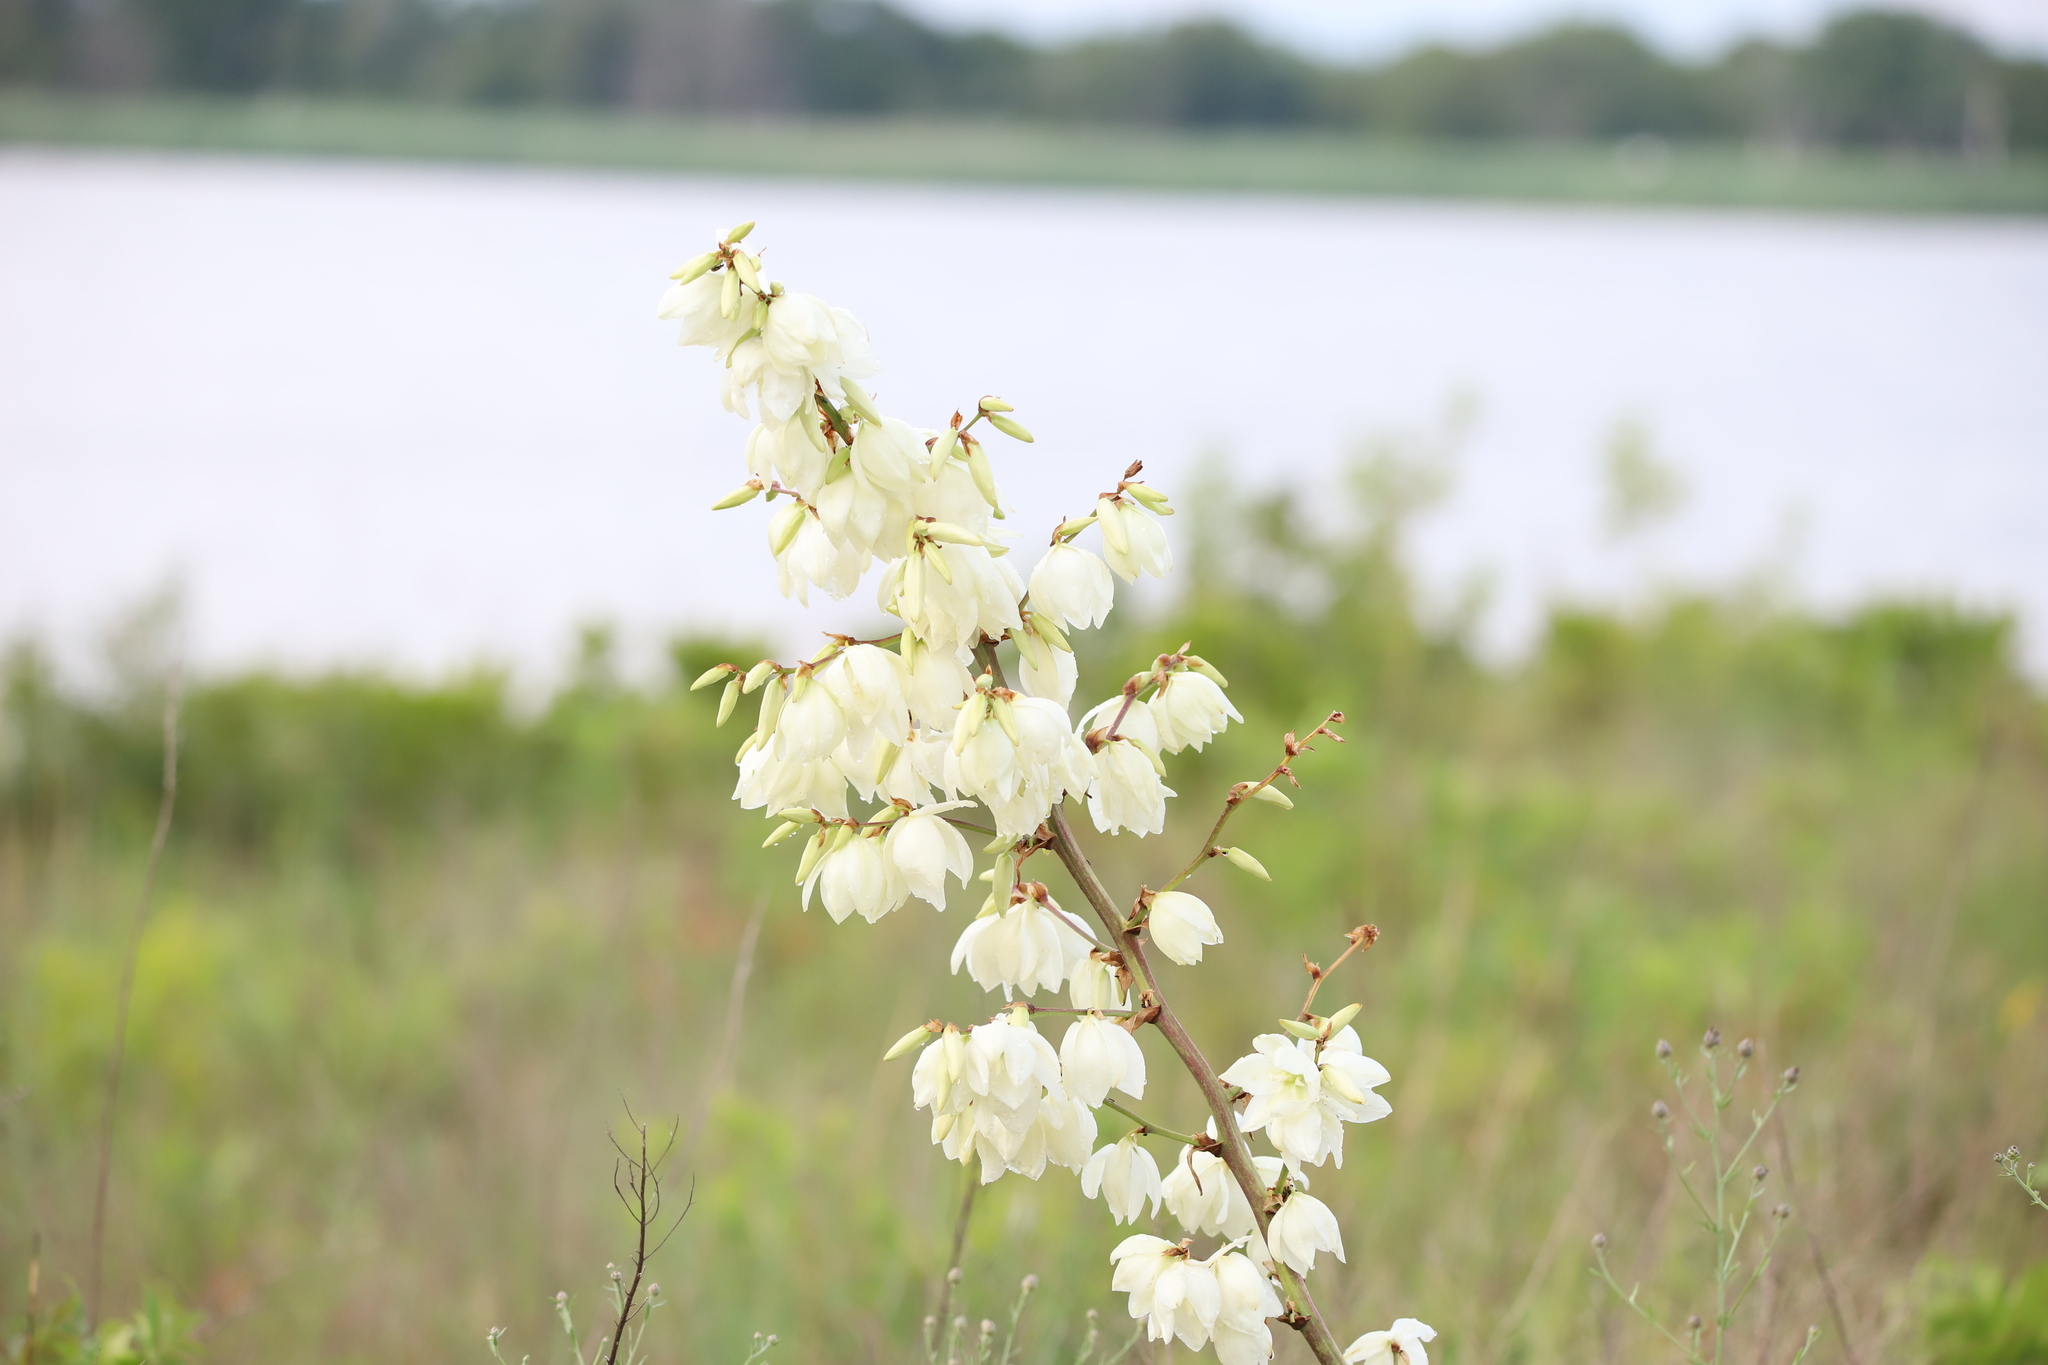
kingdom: Plantae
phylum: Tracheophyta
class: Liliopsida
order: Asparagales
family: Asparagaceae
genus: Yucca
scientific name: Yucca filamentosa
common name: Adam's-needle
